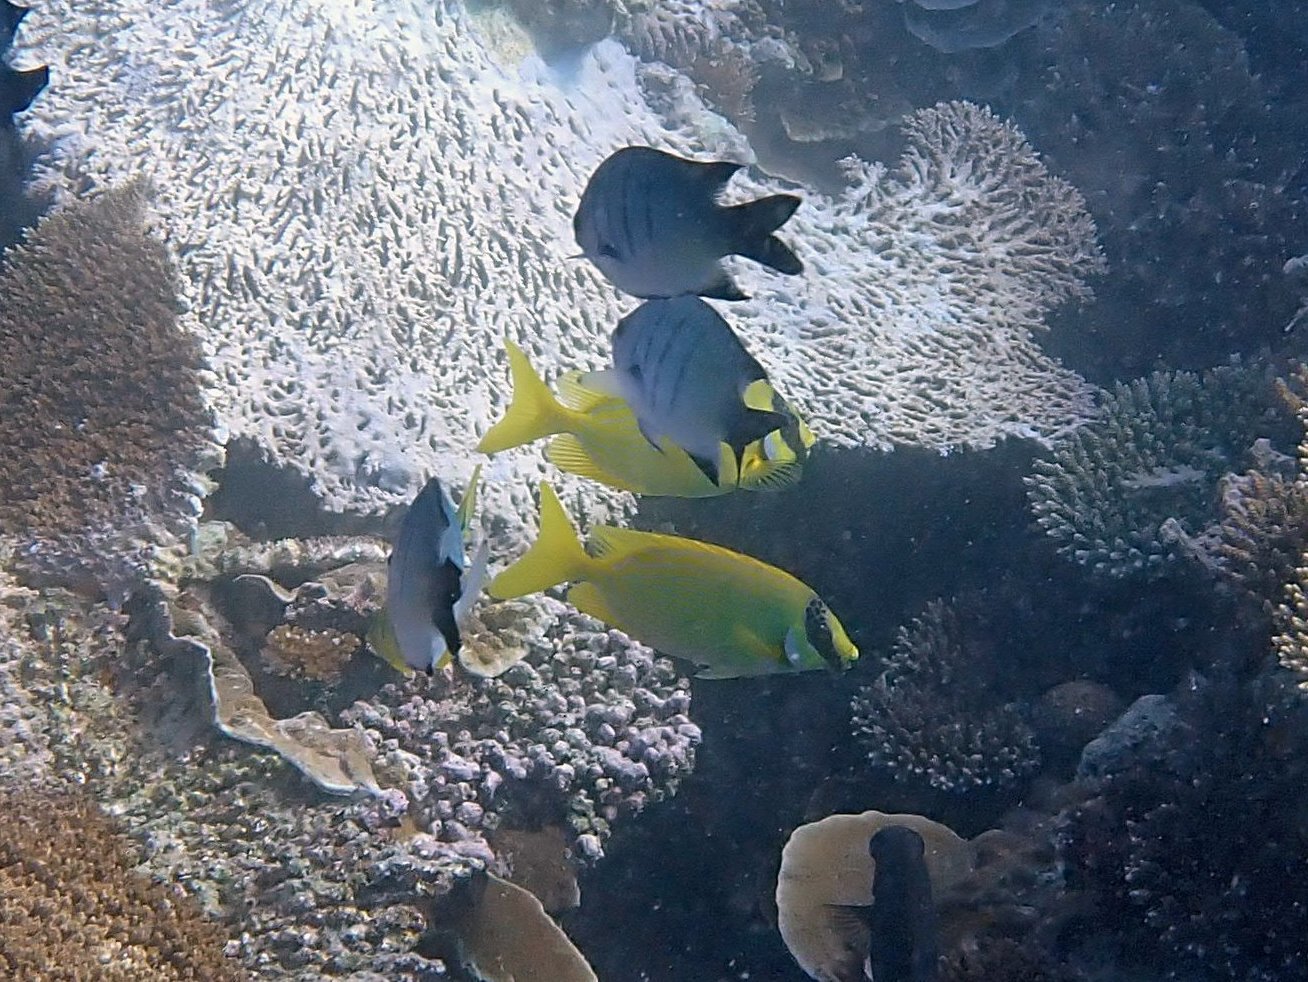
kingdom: Animalia
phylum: Chordata
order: Perciformes
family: Siganidae
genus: Siganus
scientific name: Siganus puellus
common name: Masked rabbitfish
